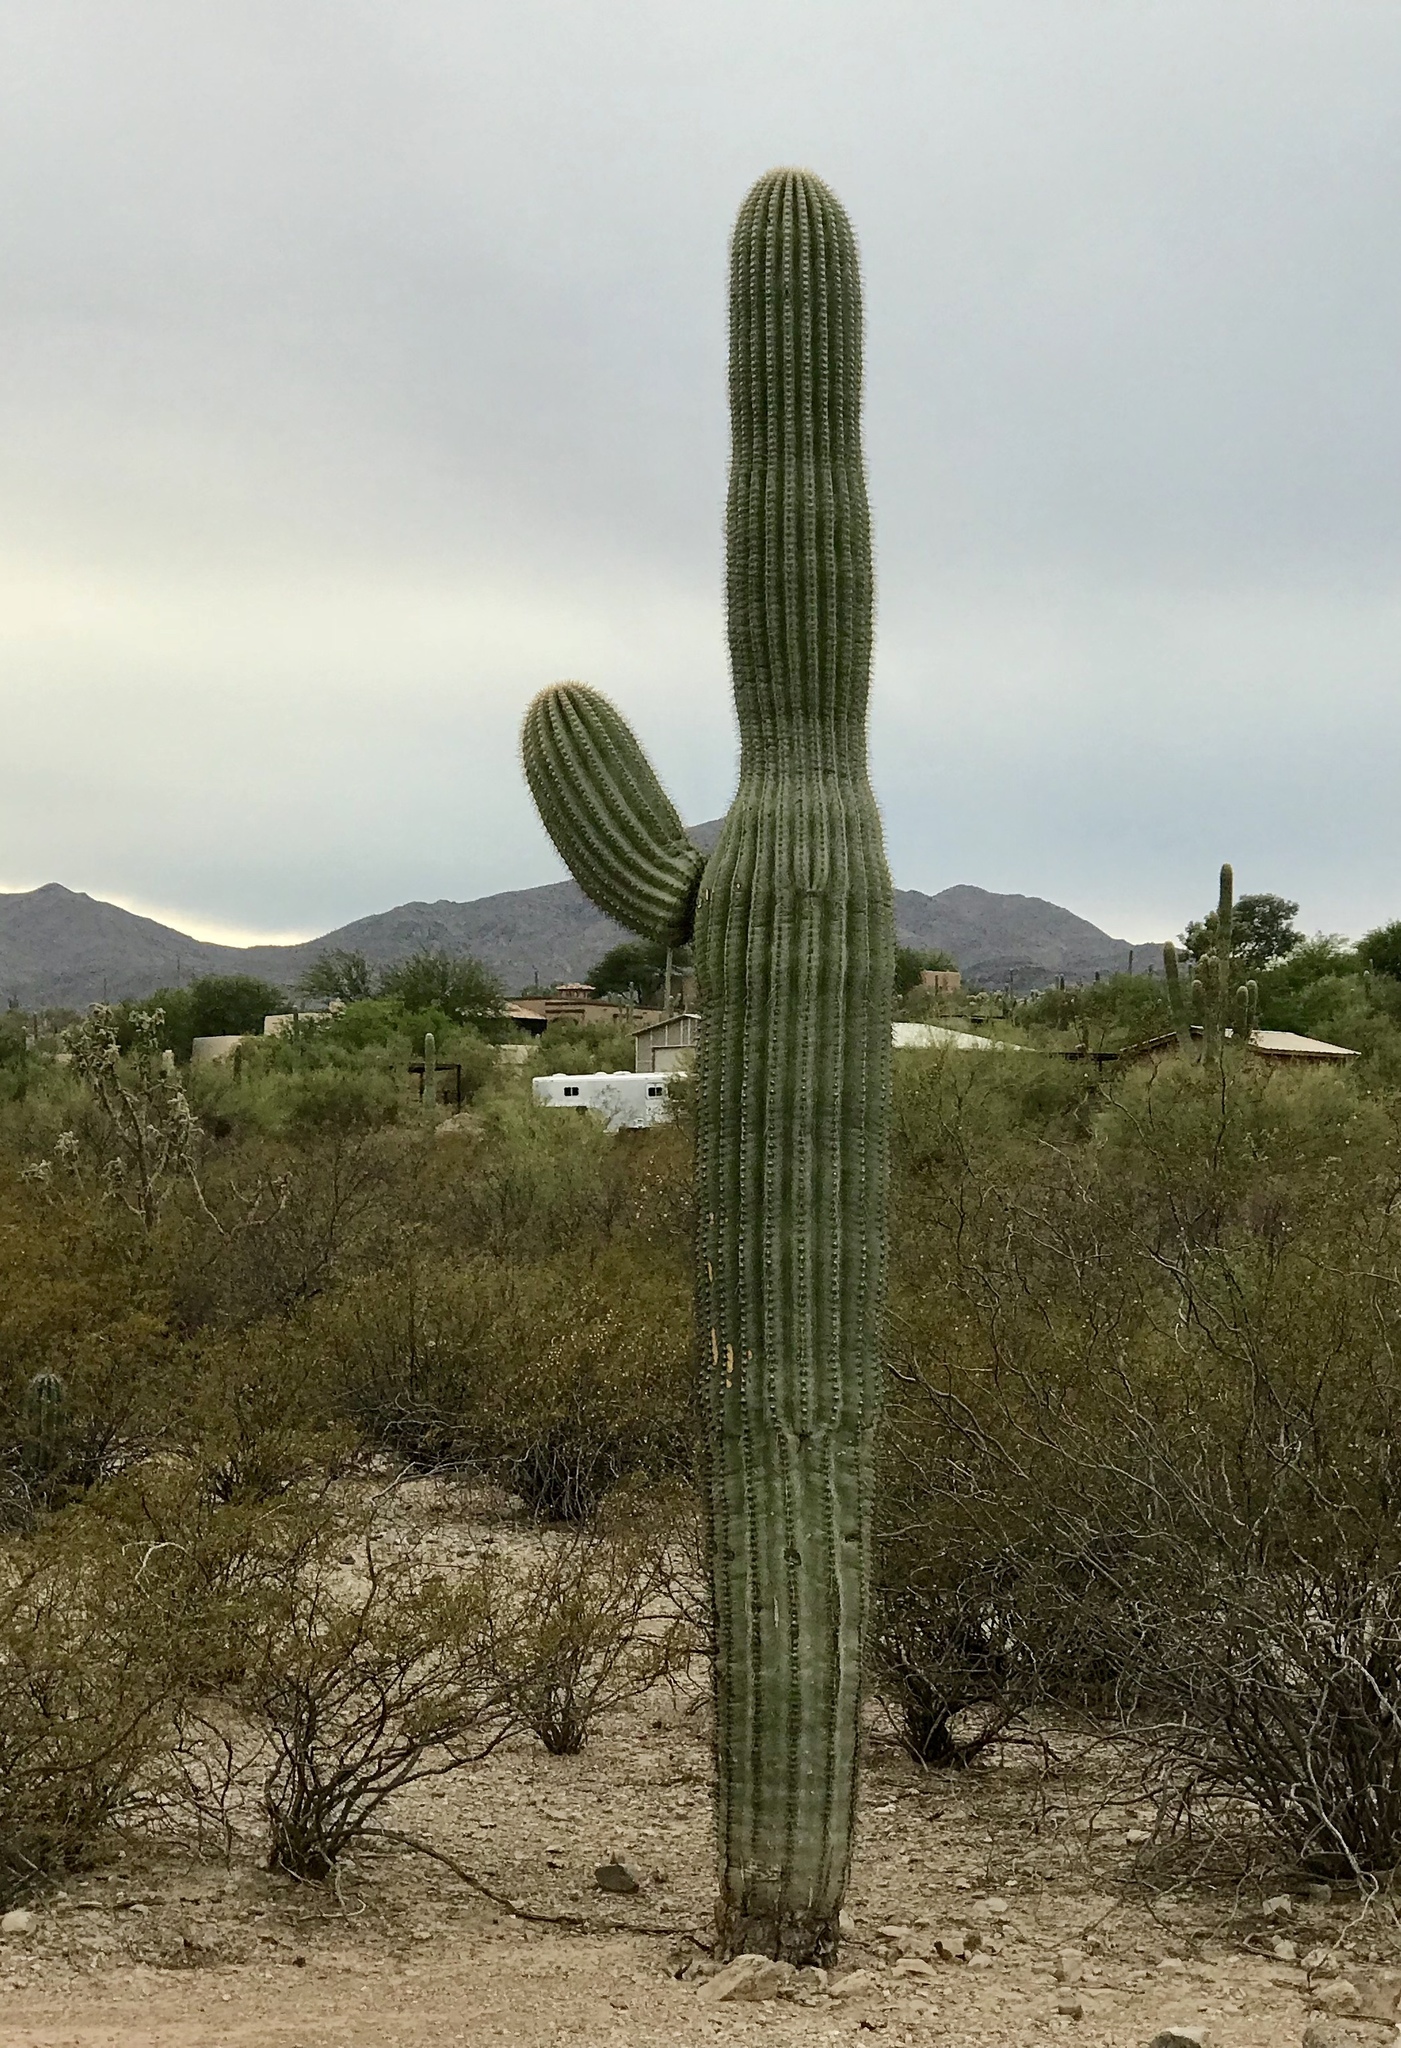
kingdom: Plantae
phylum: Tracheophyta
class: Magnoliopsida
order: Caryophyllales
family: Cactaceae
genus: Carnegiea
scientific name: Carnegiea gigantea
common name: Saguaro
